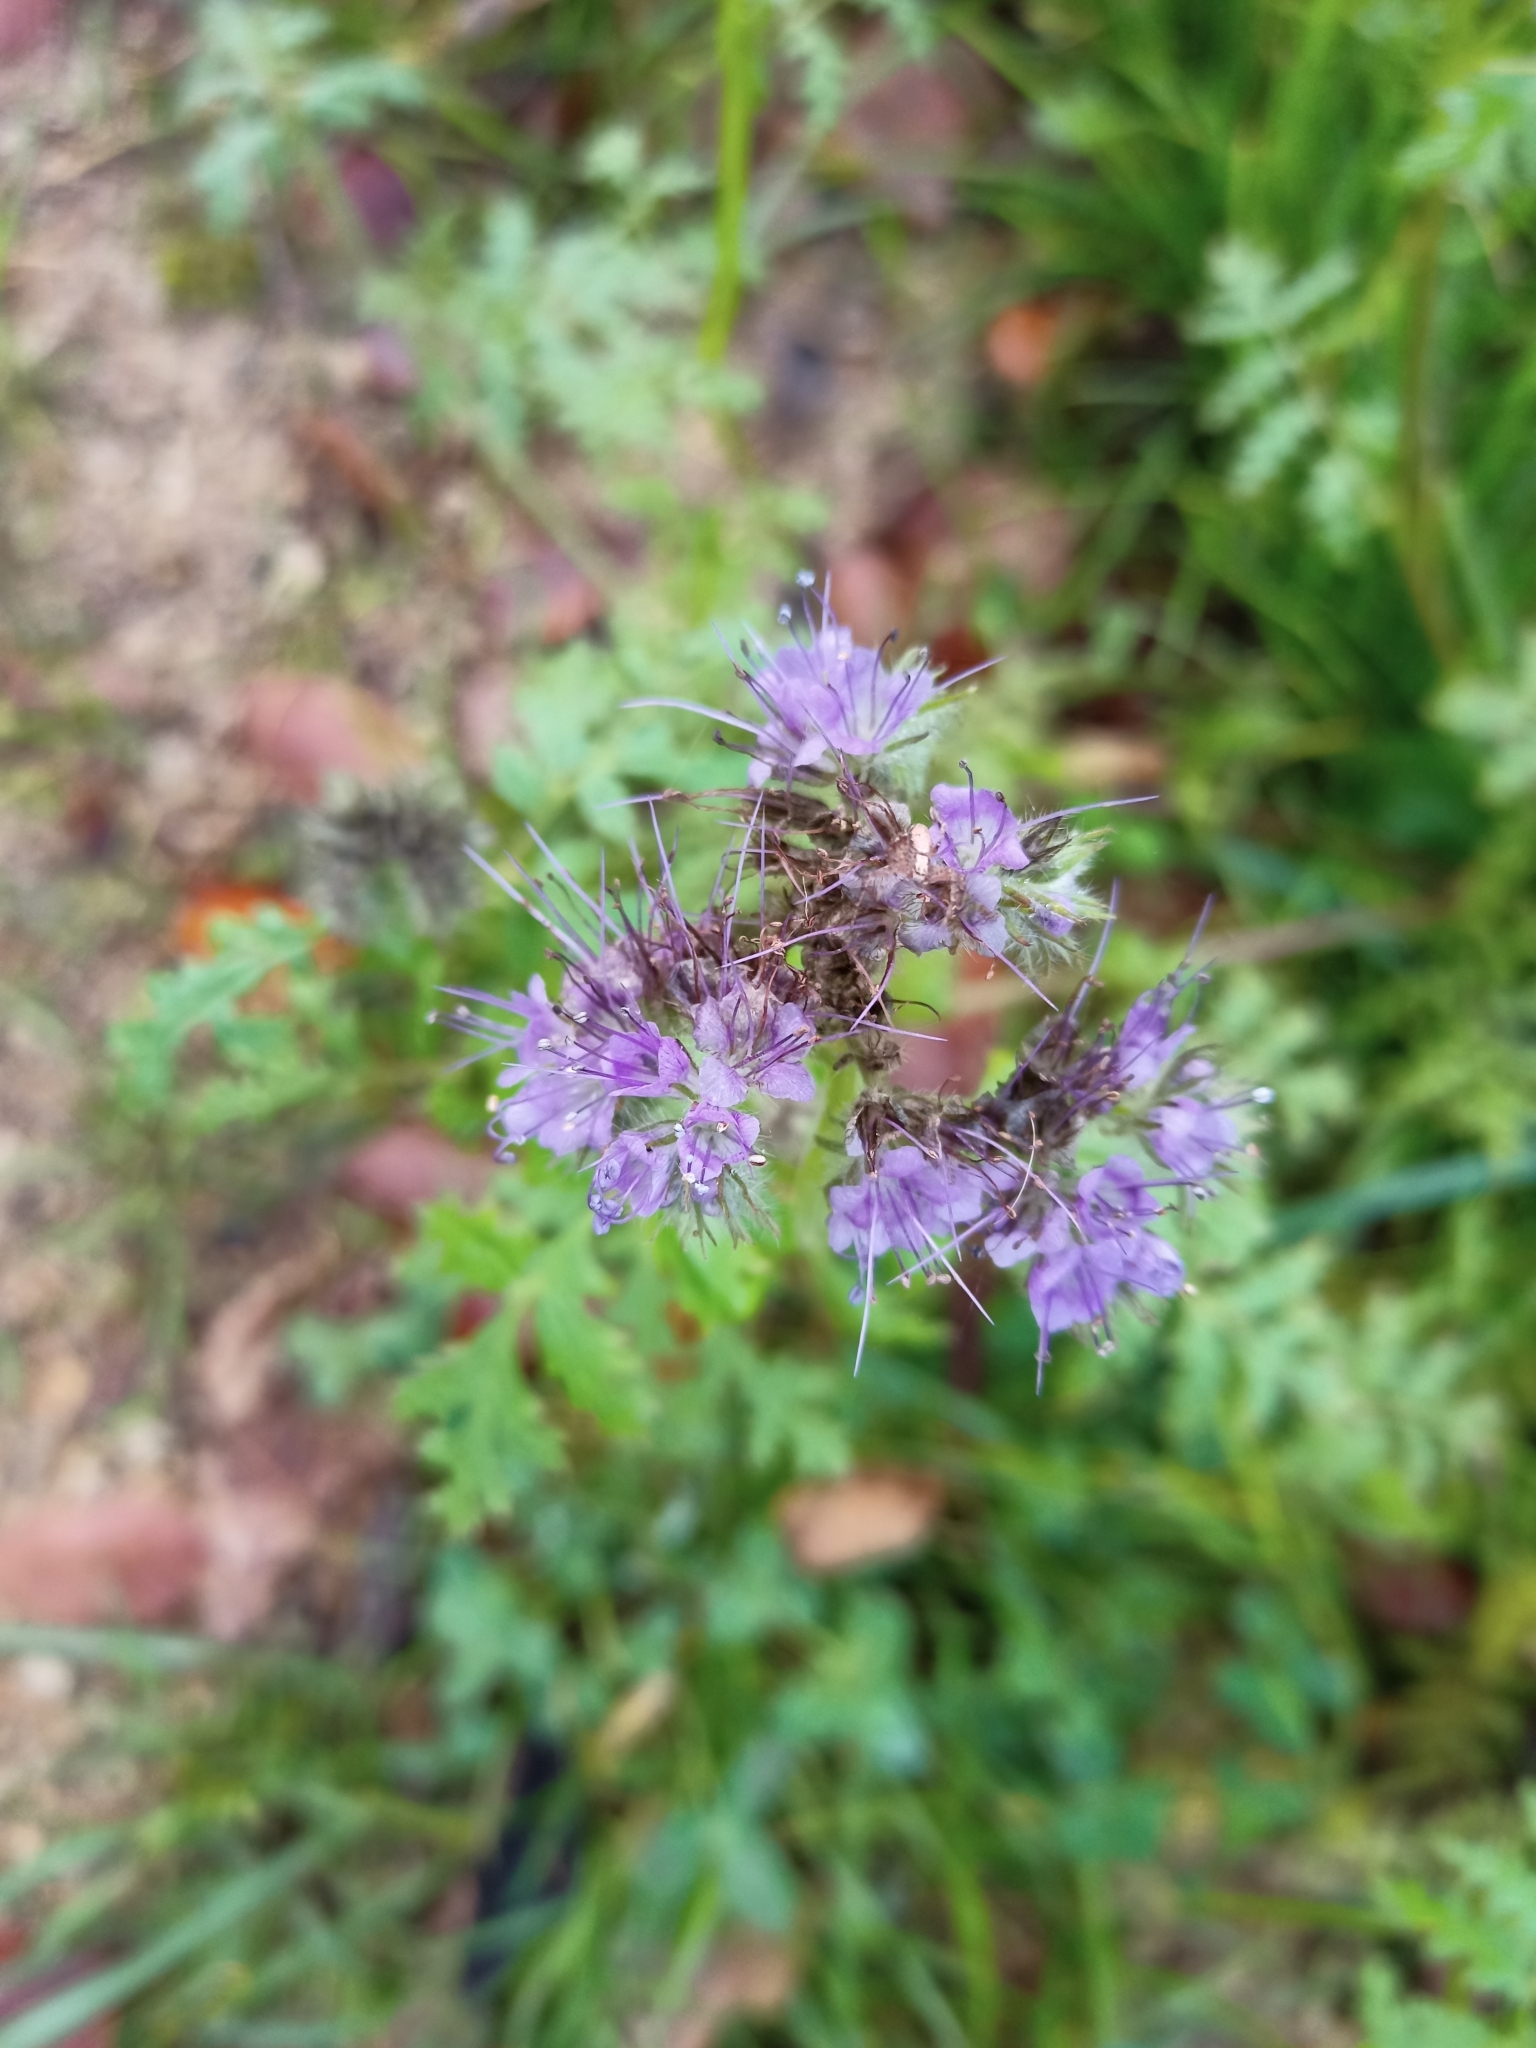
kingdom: Plantae
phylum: Tracheophyta
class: Magnoliopsida
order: Boraginales
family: Hydrophyllaceae
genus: Phacelia
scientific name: Phacelia tanacetifolia
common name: Phacelia
